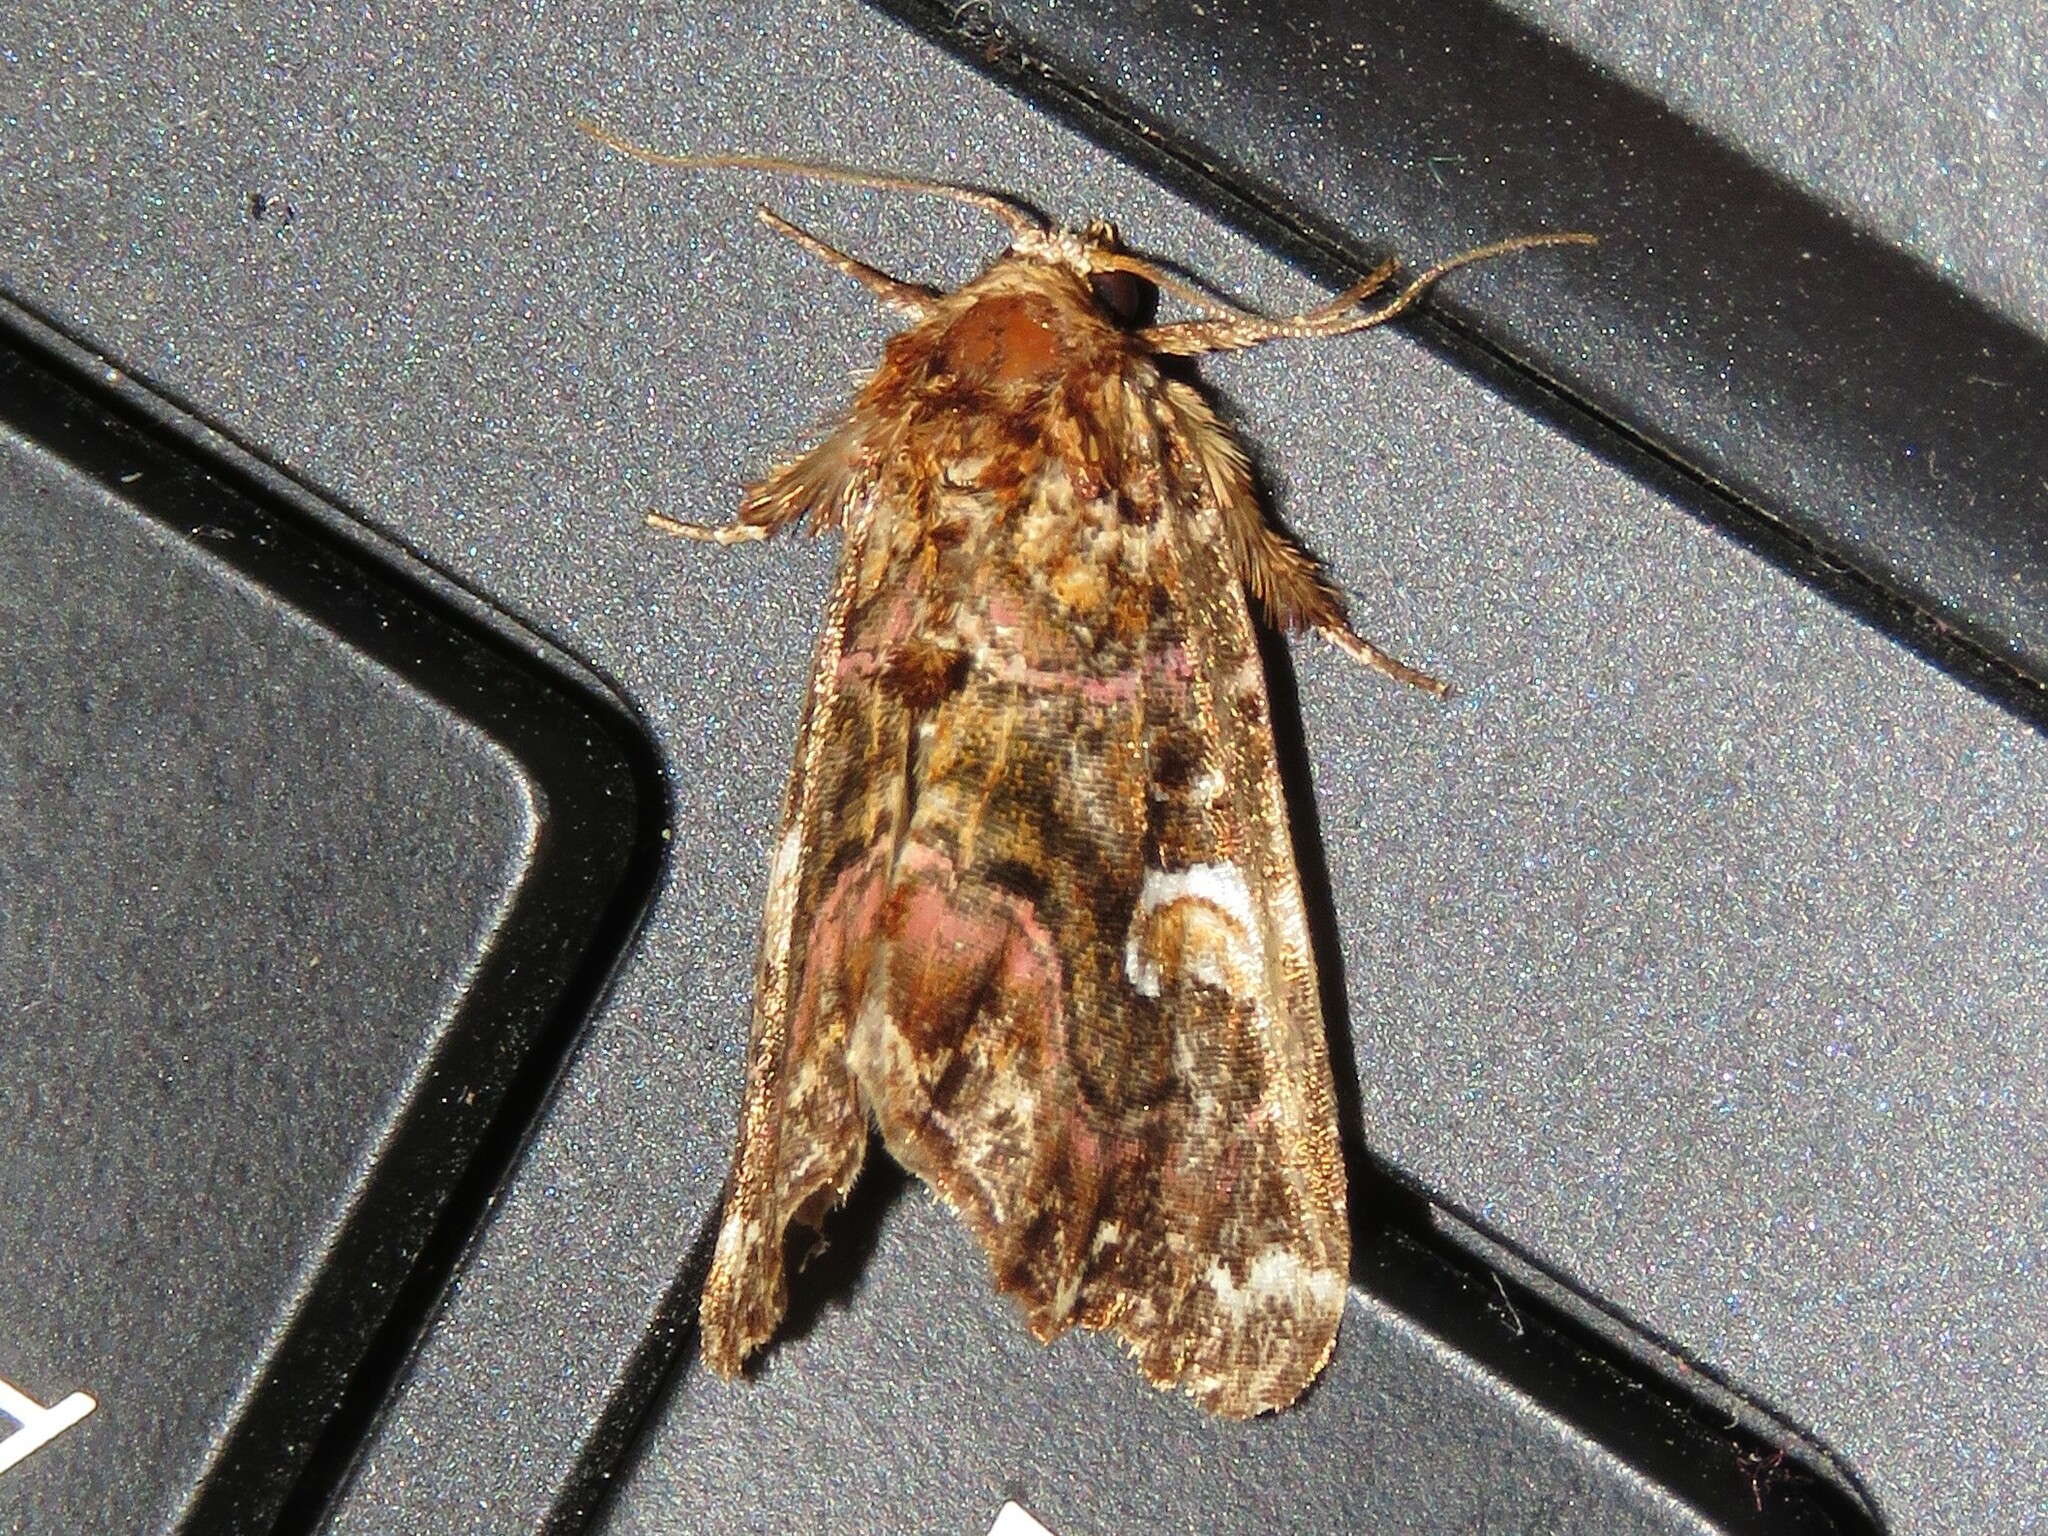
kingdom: Animalia
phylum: Arthropoda
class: Insecta
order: Lepidoptera
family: Noctuidae
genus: Callopistria
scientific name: Callopistria mollissima
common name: Pink-shaded fern moth
